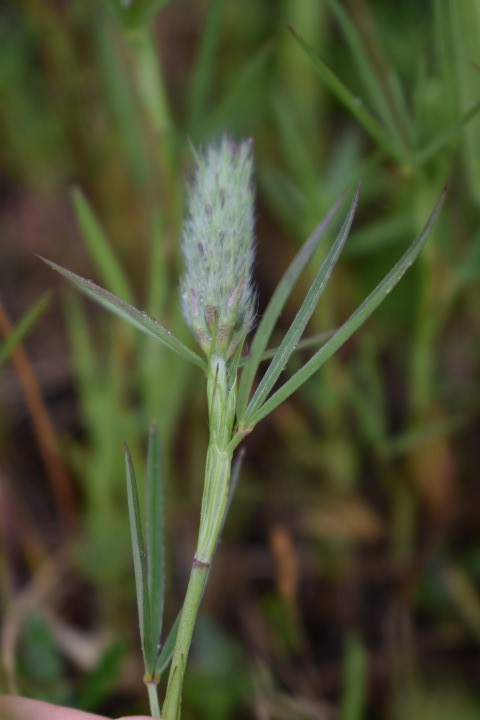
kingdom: Plantae
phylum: Tracheophyta
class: Magnoliopsida
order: Fabales
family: Fabaceae
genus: Trifolium
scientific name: Trifolium angustifolium
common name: Narrow clover
